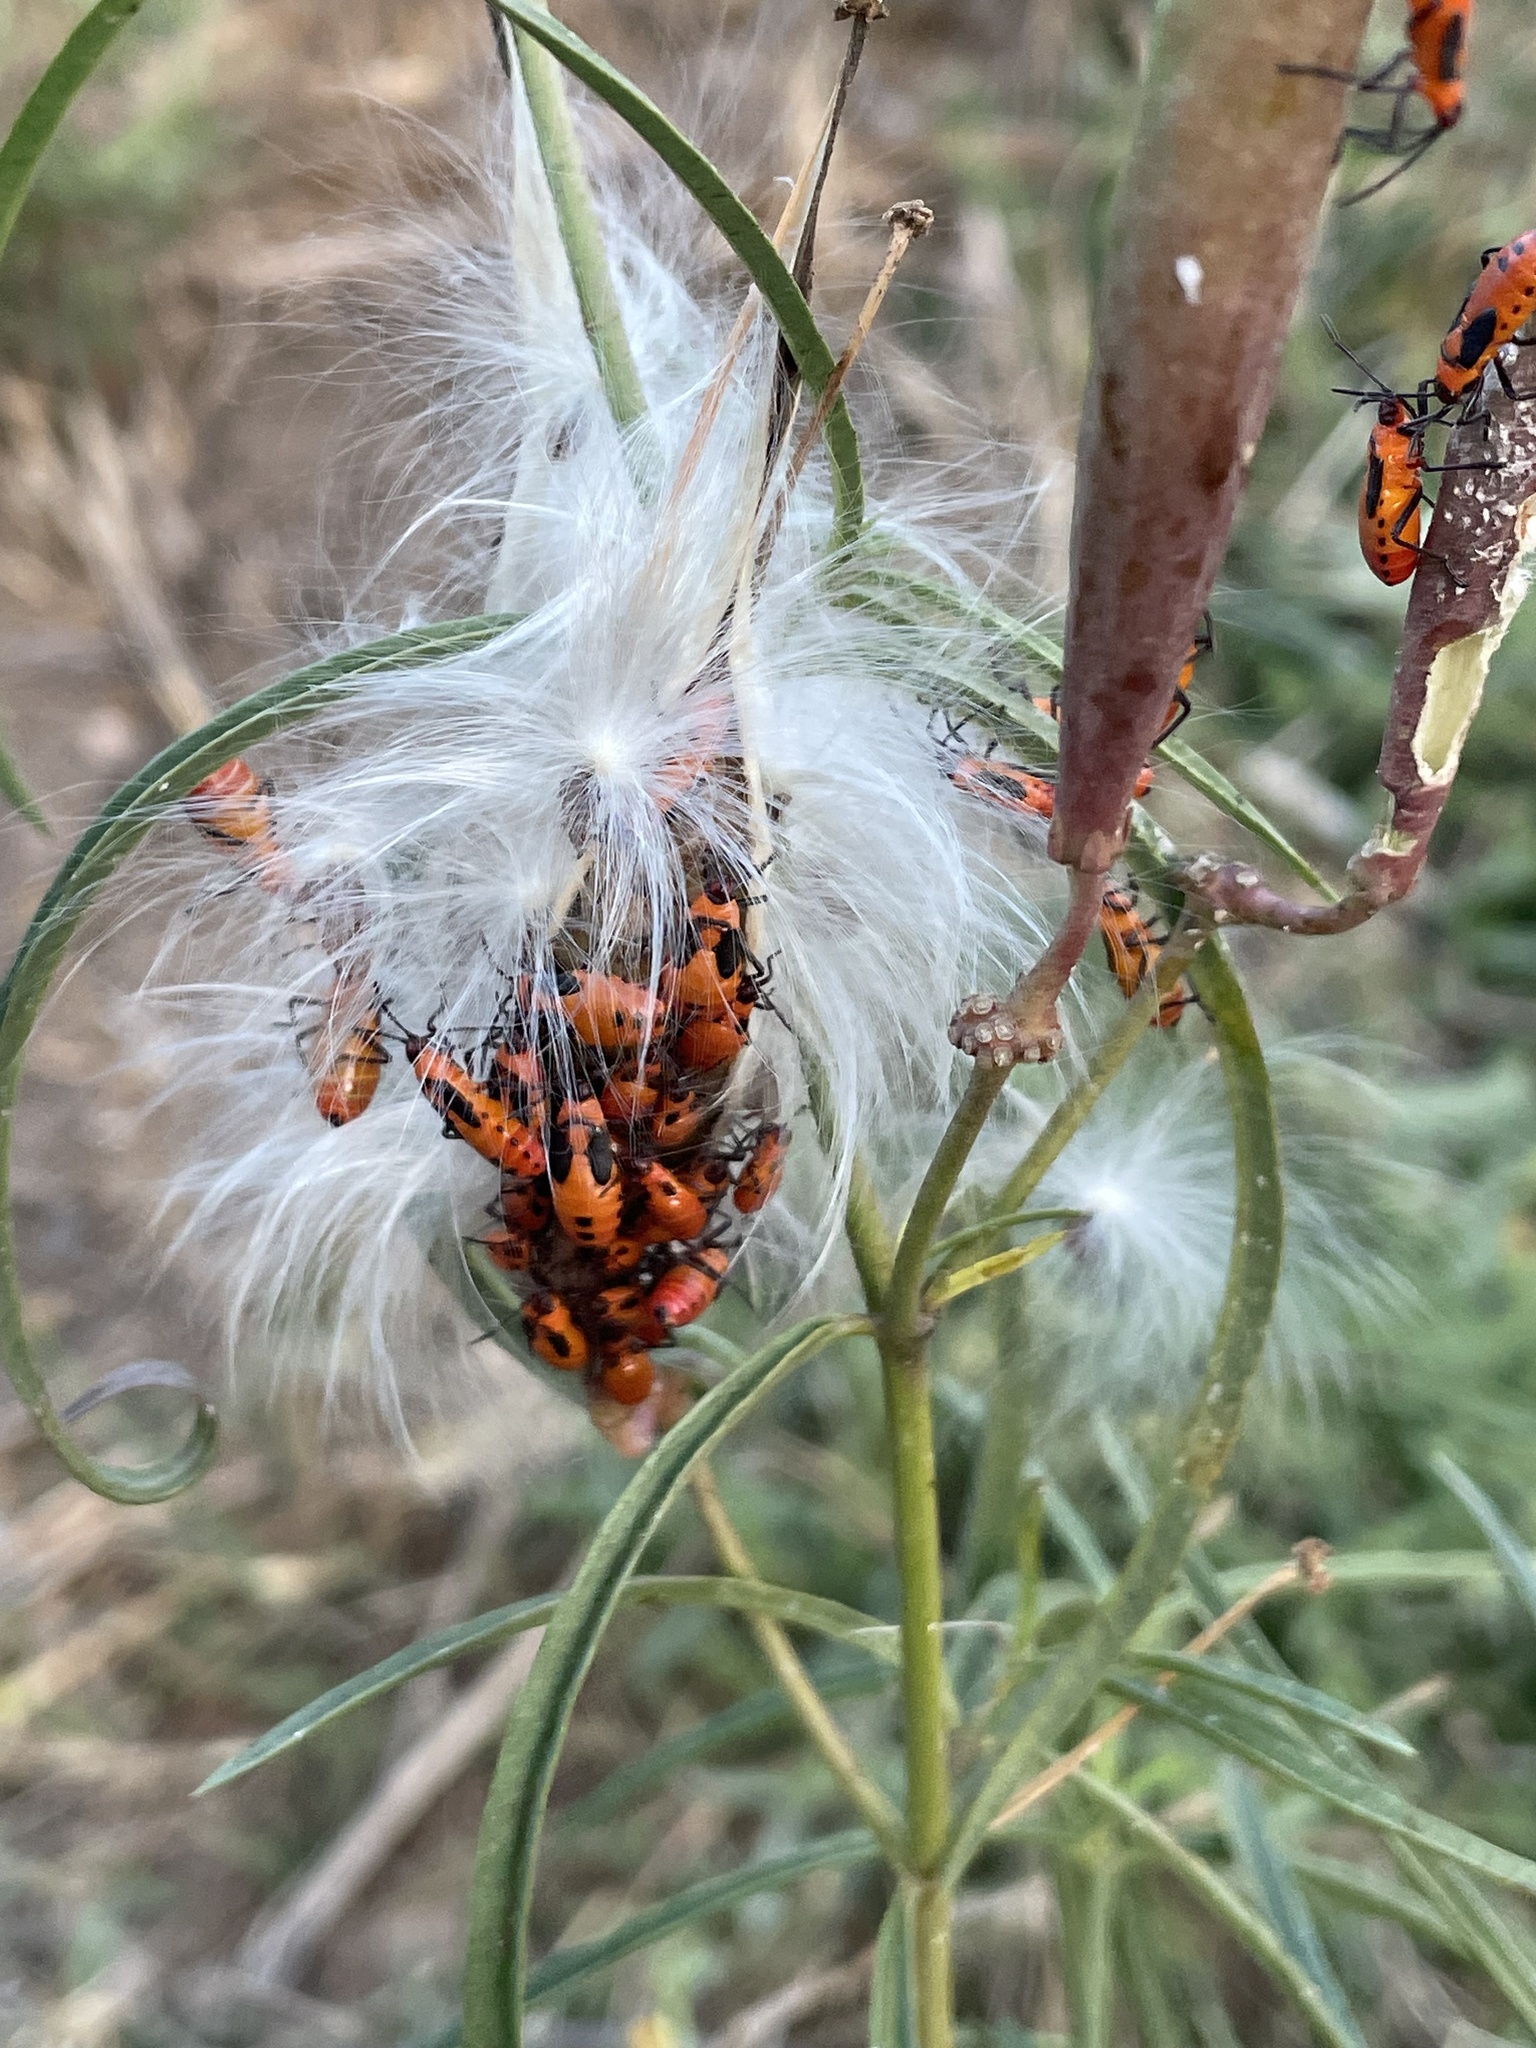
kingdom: Animalia
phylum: Arthropoda
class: Insecta
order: Hemiptera
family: Lygaeidae
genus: Oncopeltus
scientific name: Oncopeltus fasciatus
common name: Large milkweed bug
